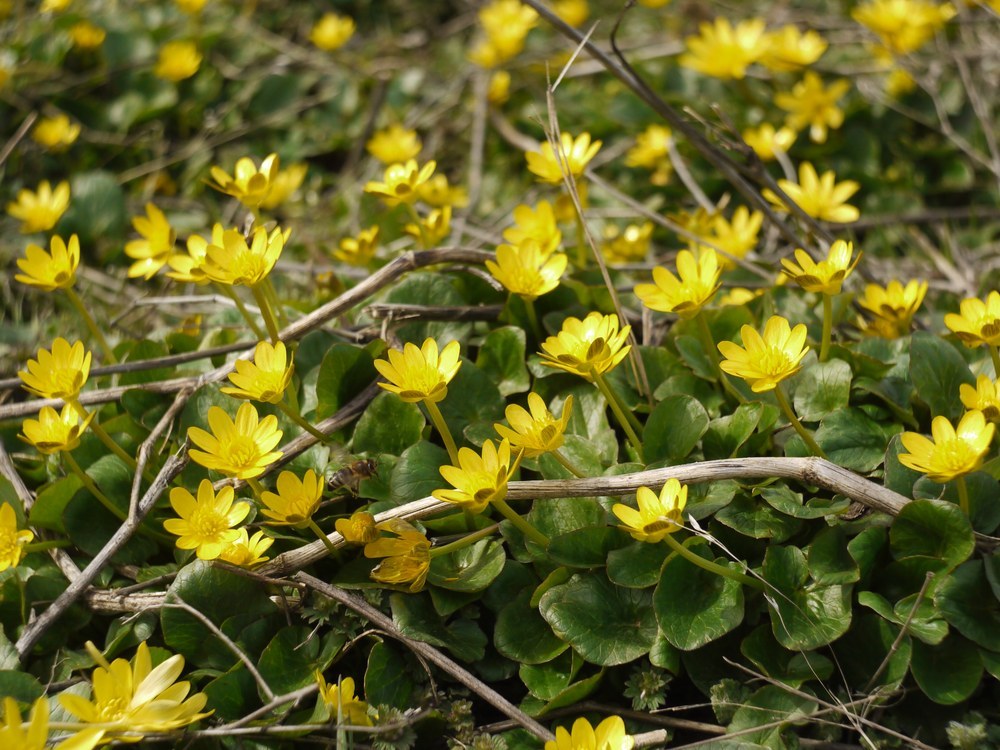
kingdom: Plantae
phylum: Tracheophyta
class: Magnoliopsida
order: Ranunculales
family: Ranunculaceae
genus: Ficaria
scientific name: Ficaria verna
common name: Lesser celandine
